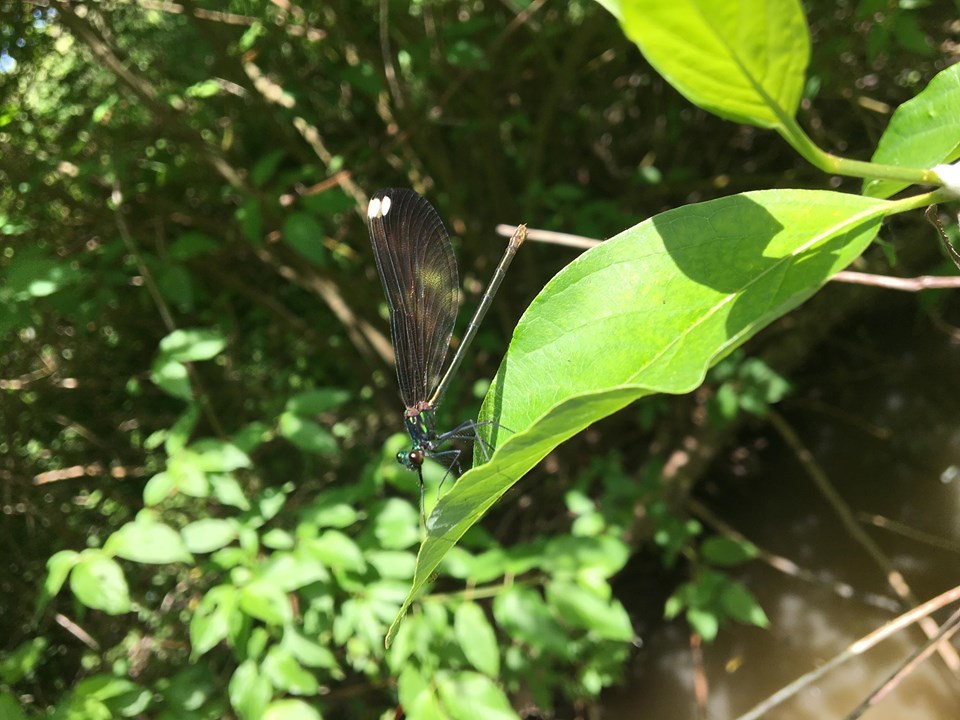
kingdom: Animalia
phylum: Arthropoda
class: Insecta
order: Odonata
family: Calopterygidae
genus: Calopteryx
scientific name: Calopteryx maculata
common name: Ebony jewelwing
